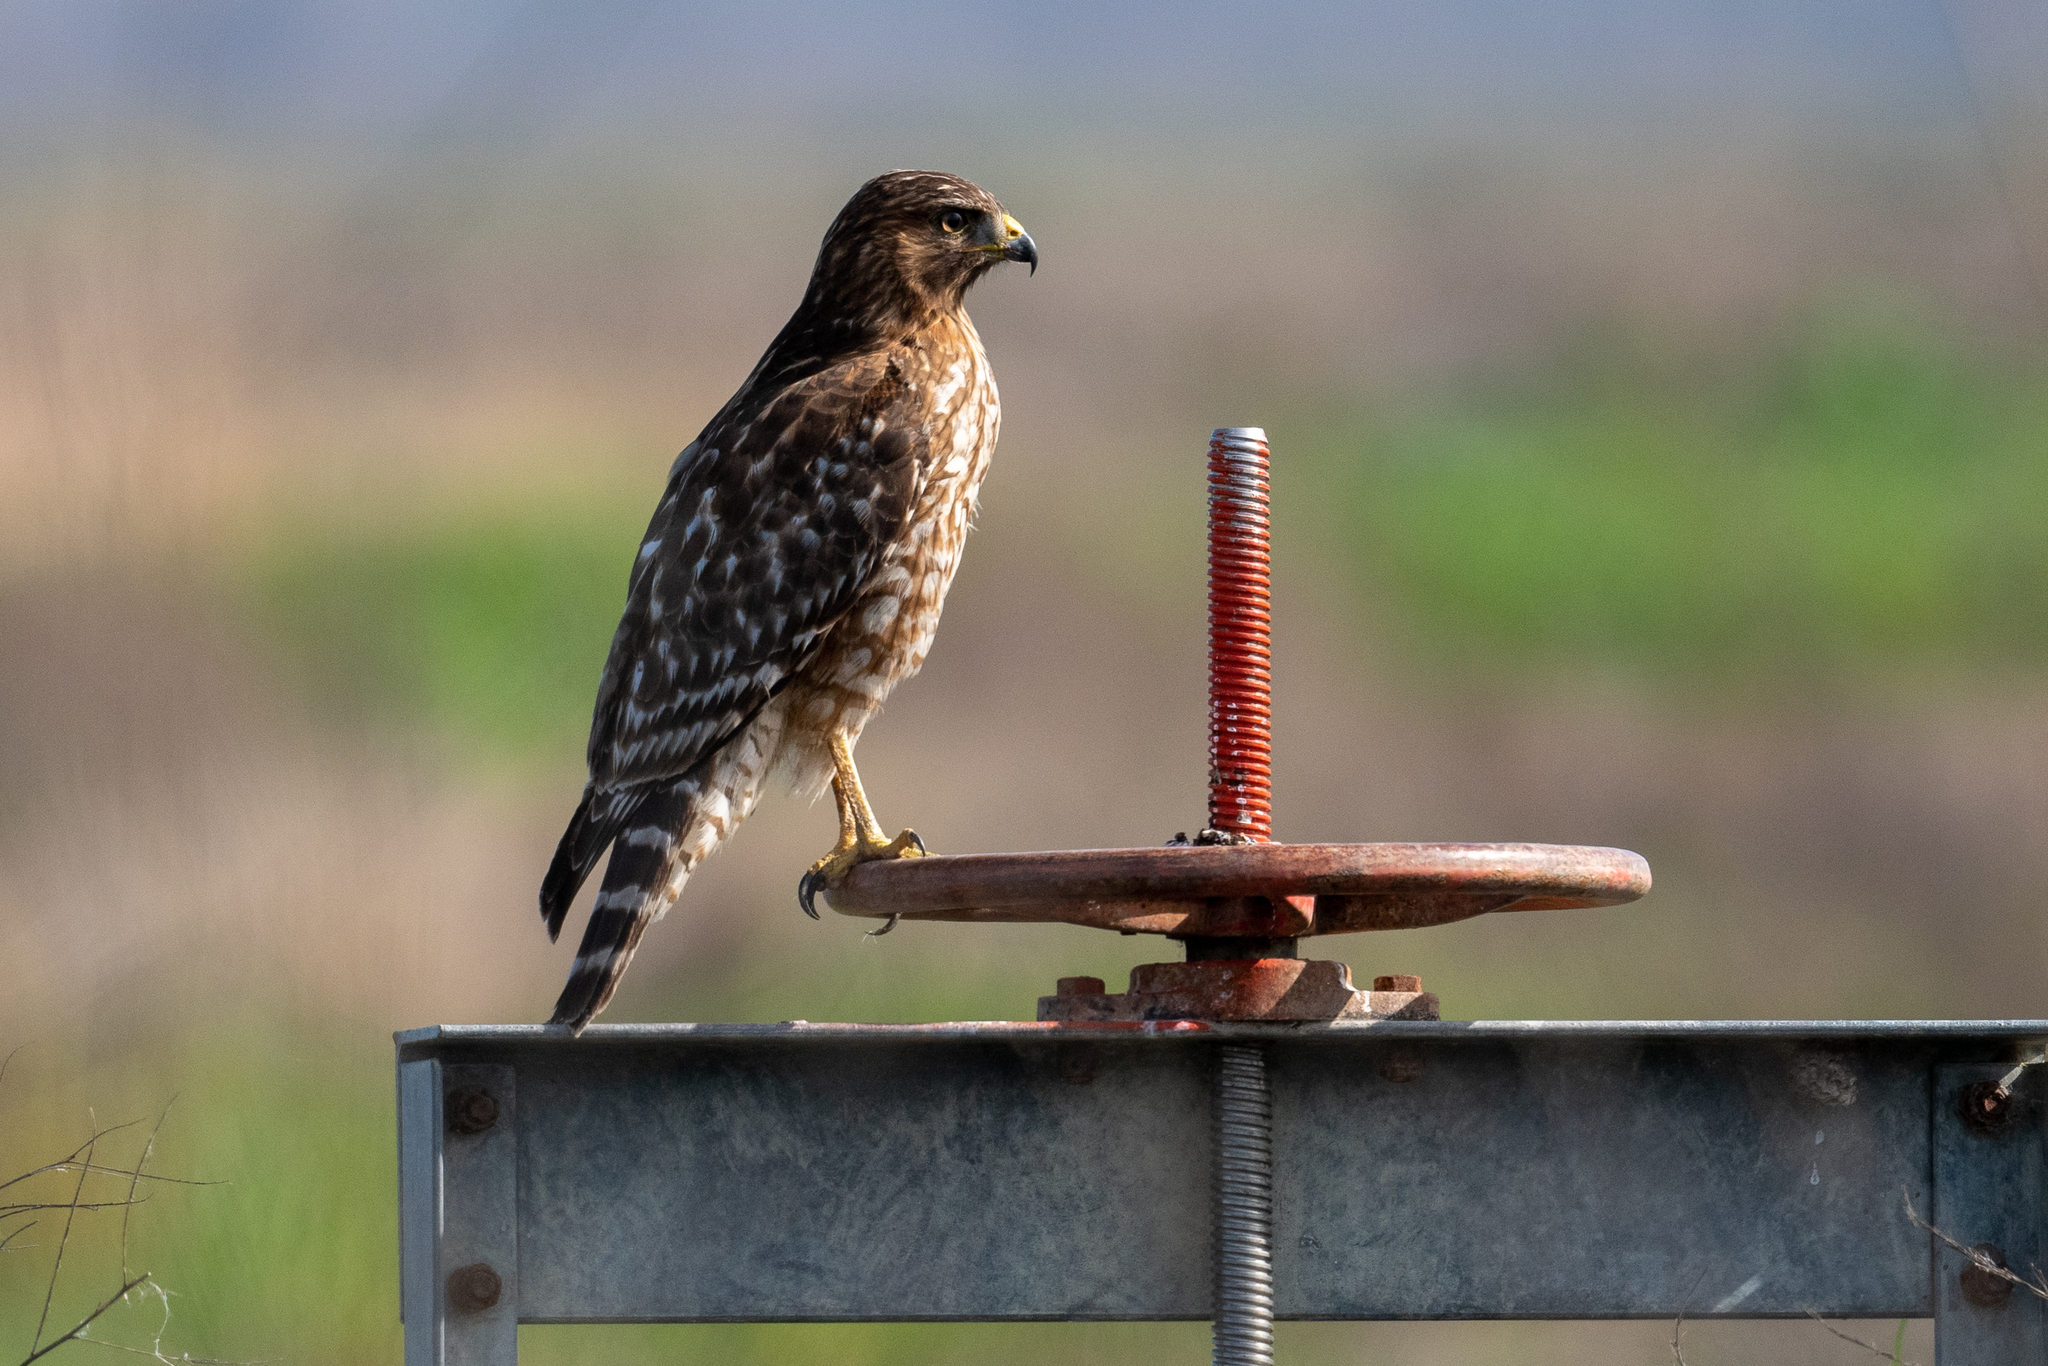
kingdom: Animalia
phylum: Chordata
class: Aves
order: Accipitriformes
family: Accipitridae
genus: Buteo
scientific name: Buteo lineatus
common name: Red-shouldered hawk
